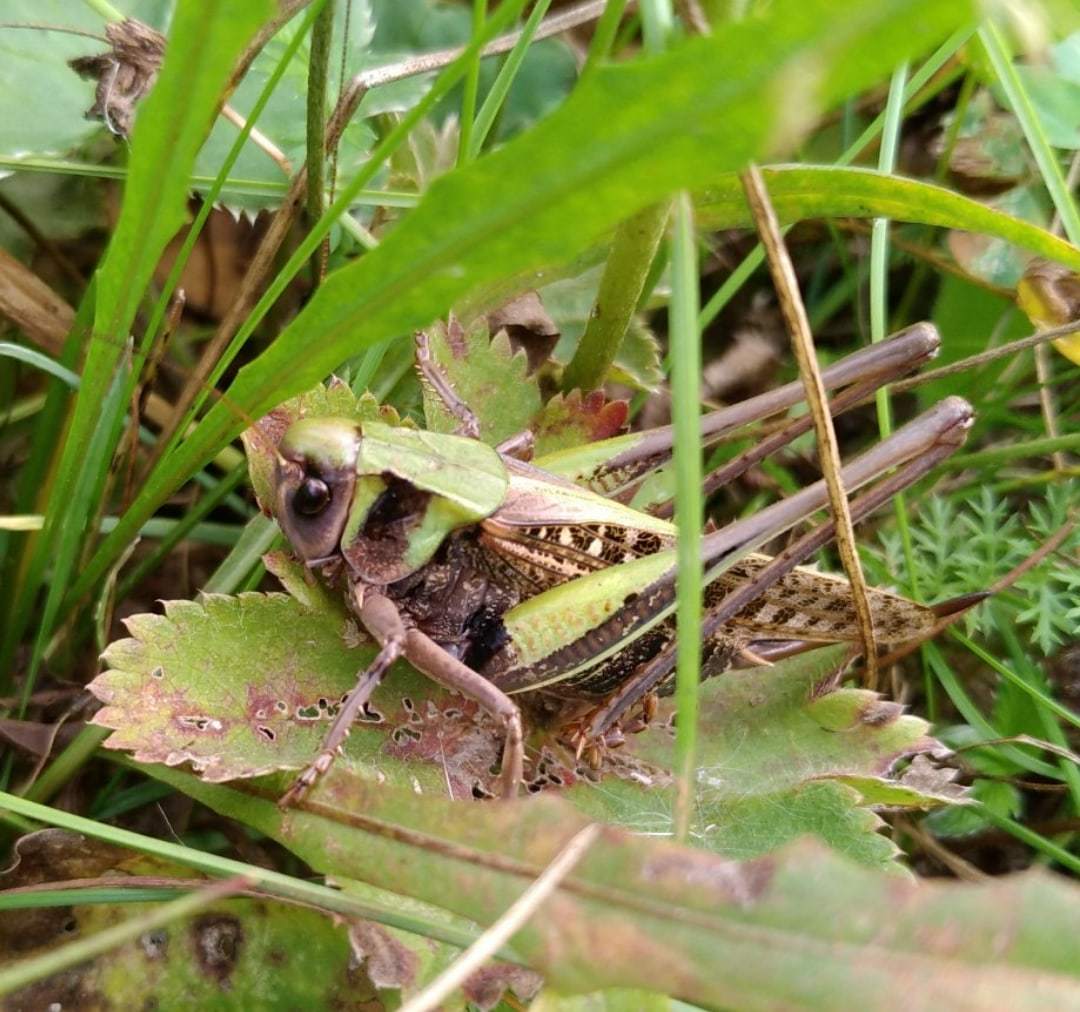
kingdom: Animalia
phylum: Arthropoda
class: Insecta
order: Orthoptera
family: Tettigoniidae
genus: Decticus
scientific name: Decticus verrucivorus
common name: Wart-biter
